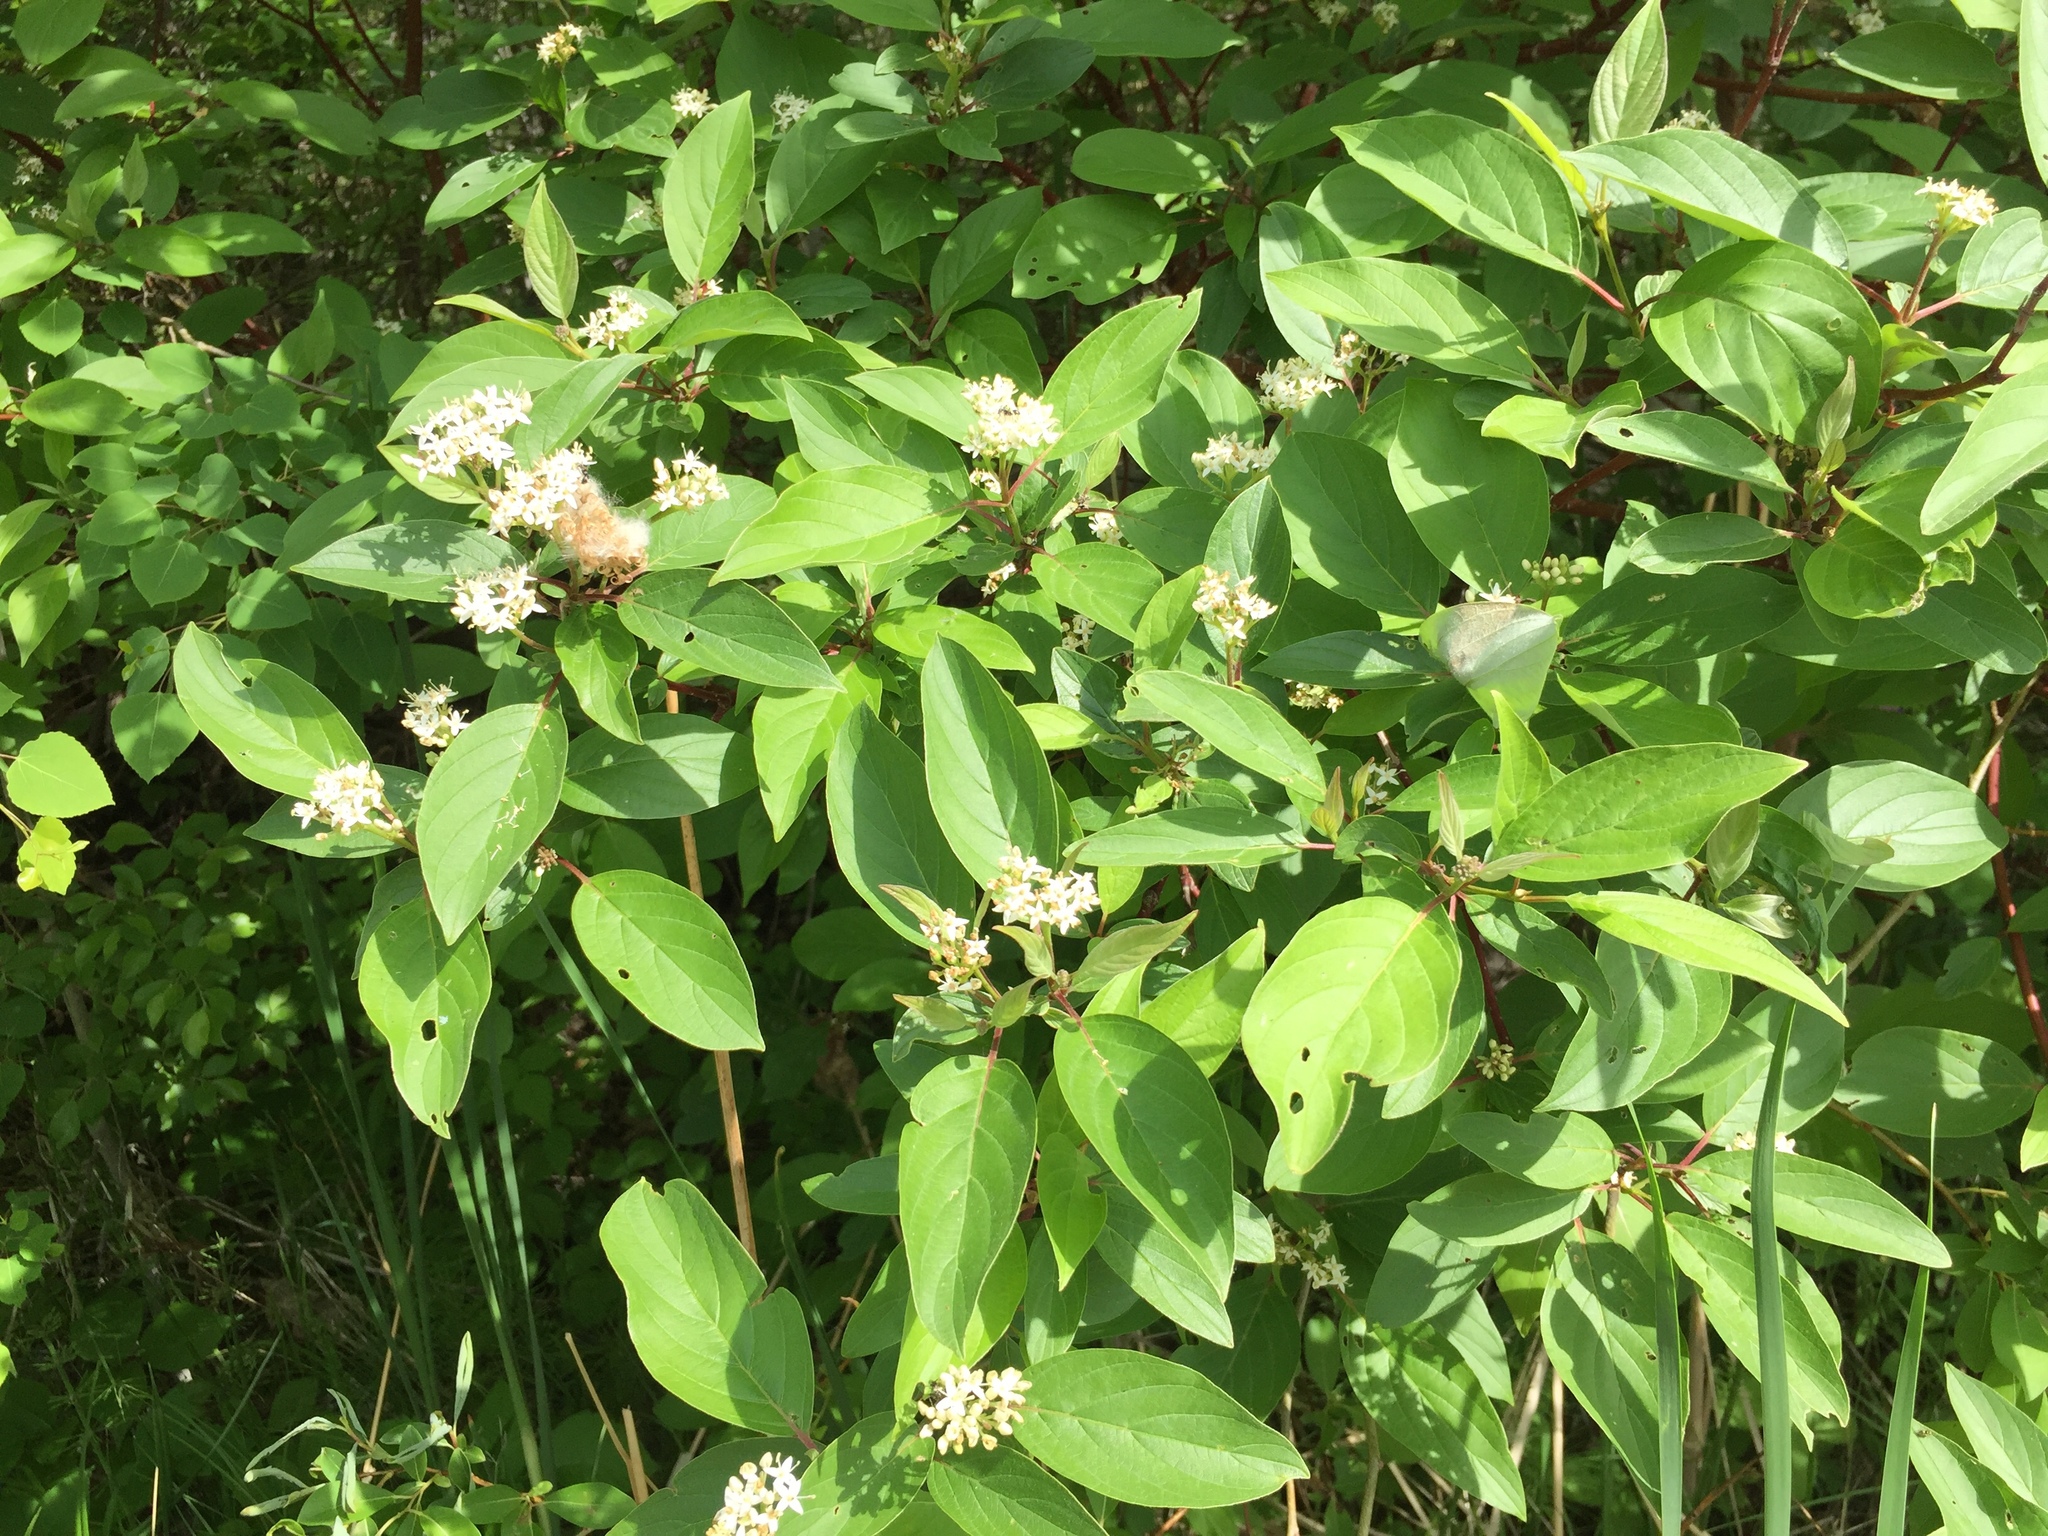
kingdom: Plantae
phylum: Tracheophyta
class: Magnoliopsida
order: Cornales
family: Cornaceae
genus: Cornus
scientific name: Cornus sericea
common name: Red-osier dogwood
